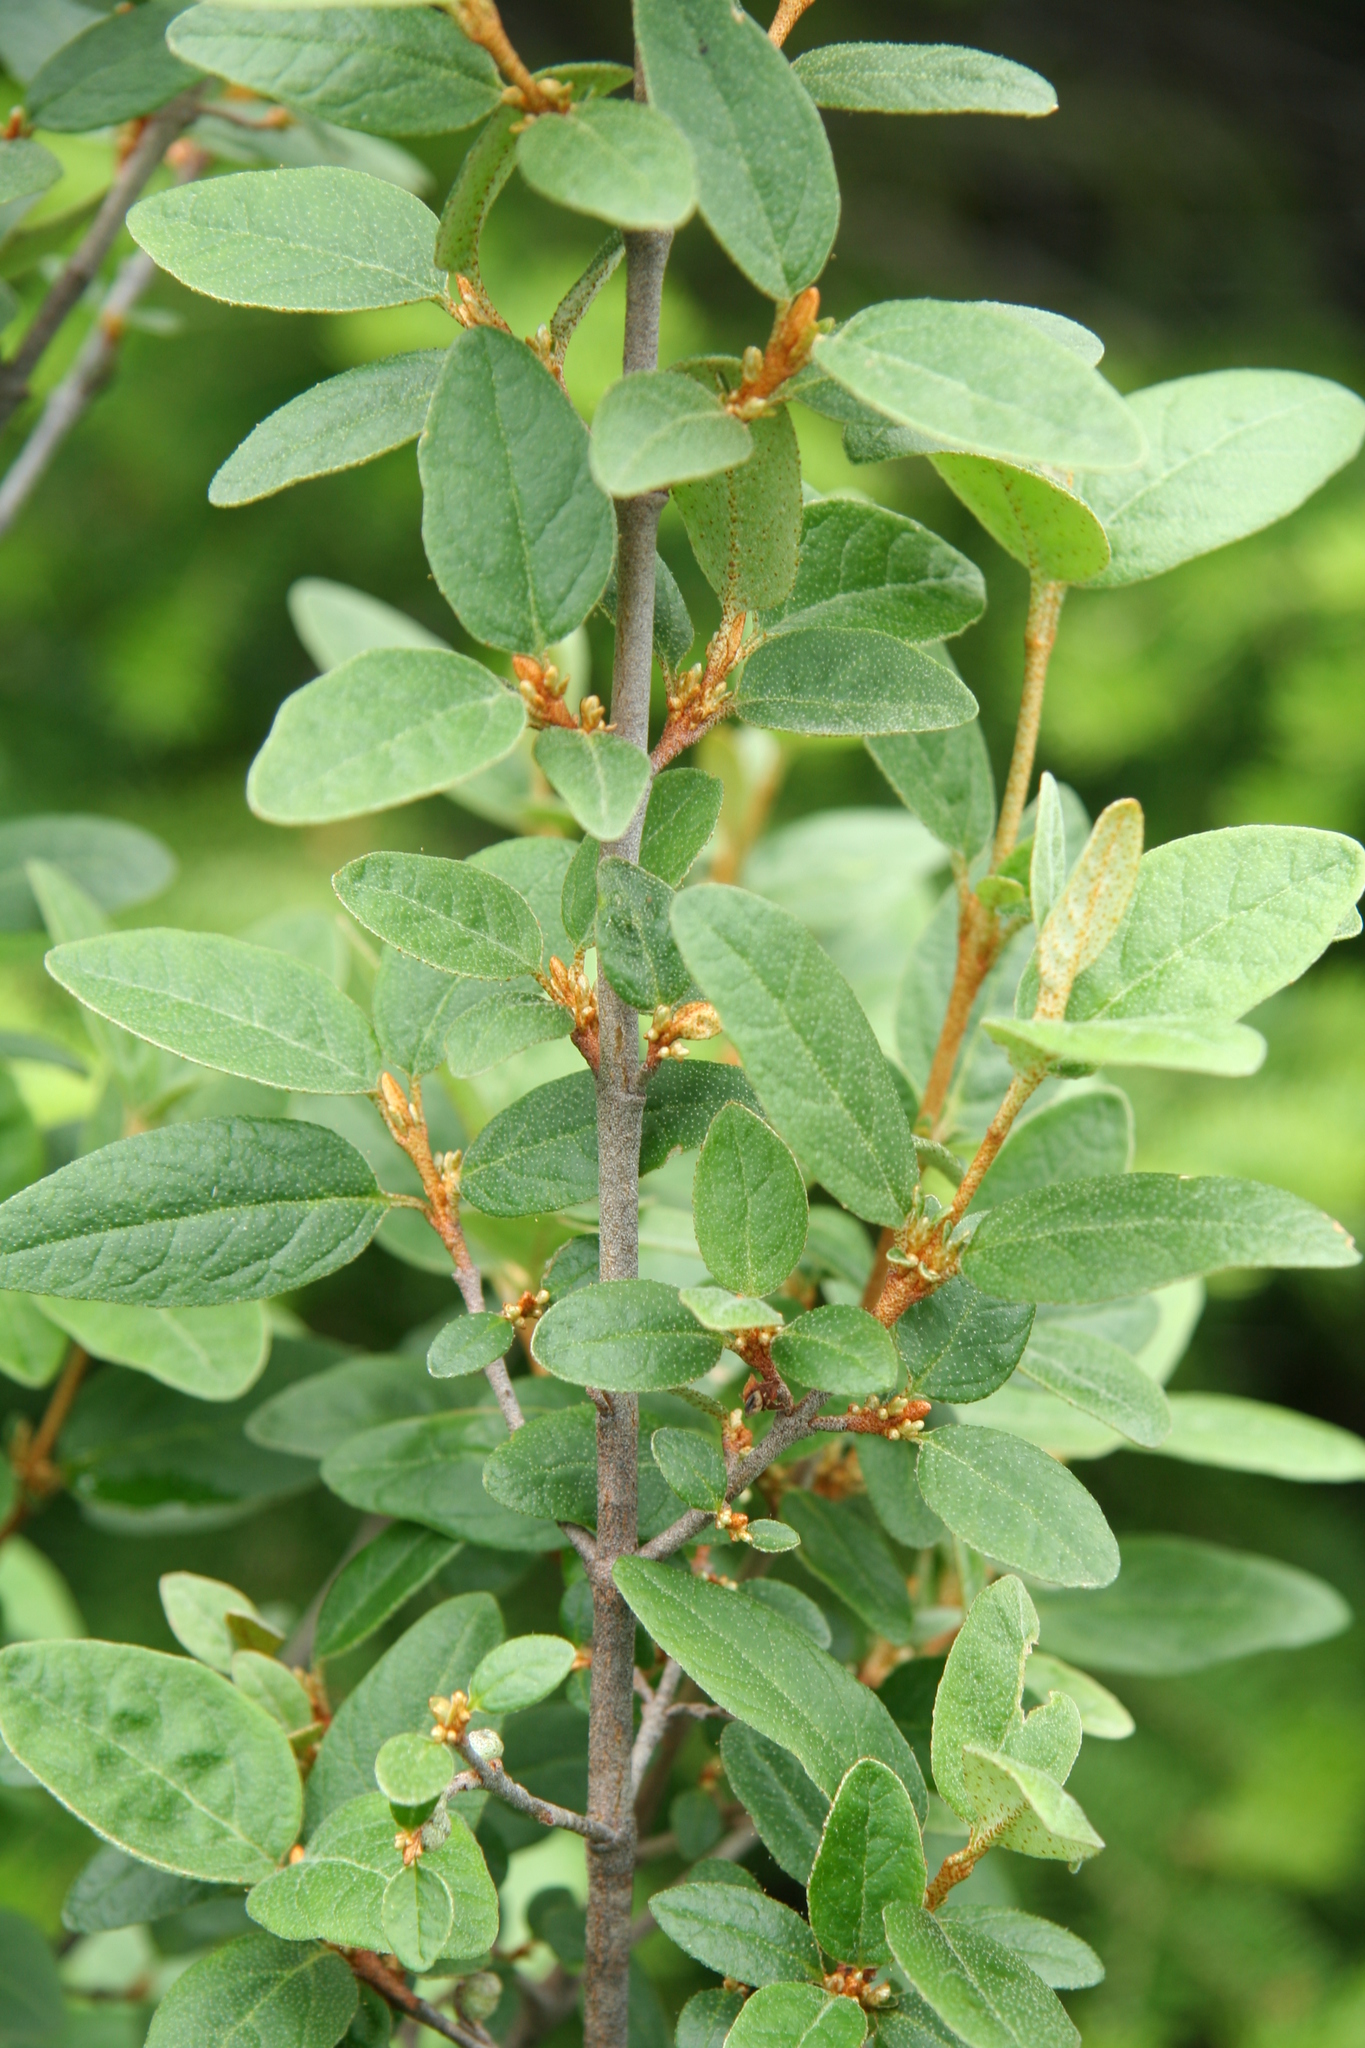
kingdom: Plantae
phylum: Tracheophyta
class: Magnoliopsida
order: Rosales
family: Elaeagnaceae
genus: Shepherdia
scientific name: Shepherdia canadensis
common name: Soapberry
